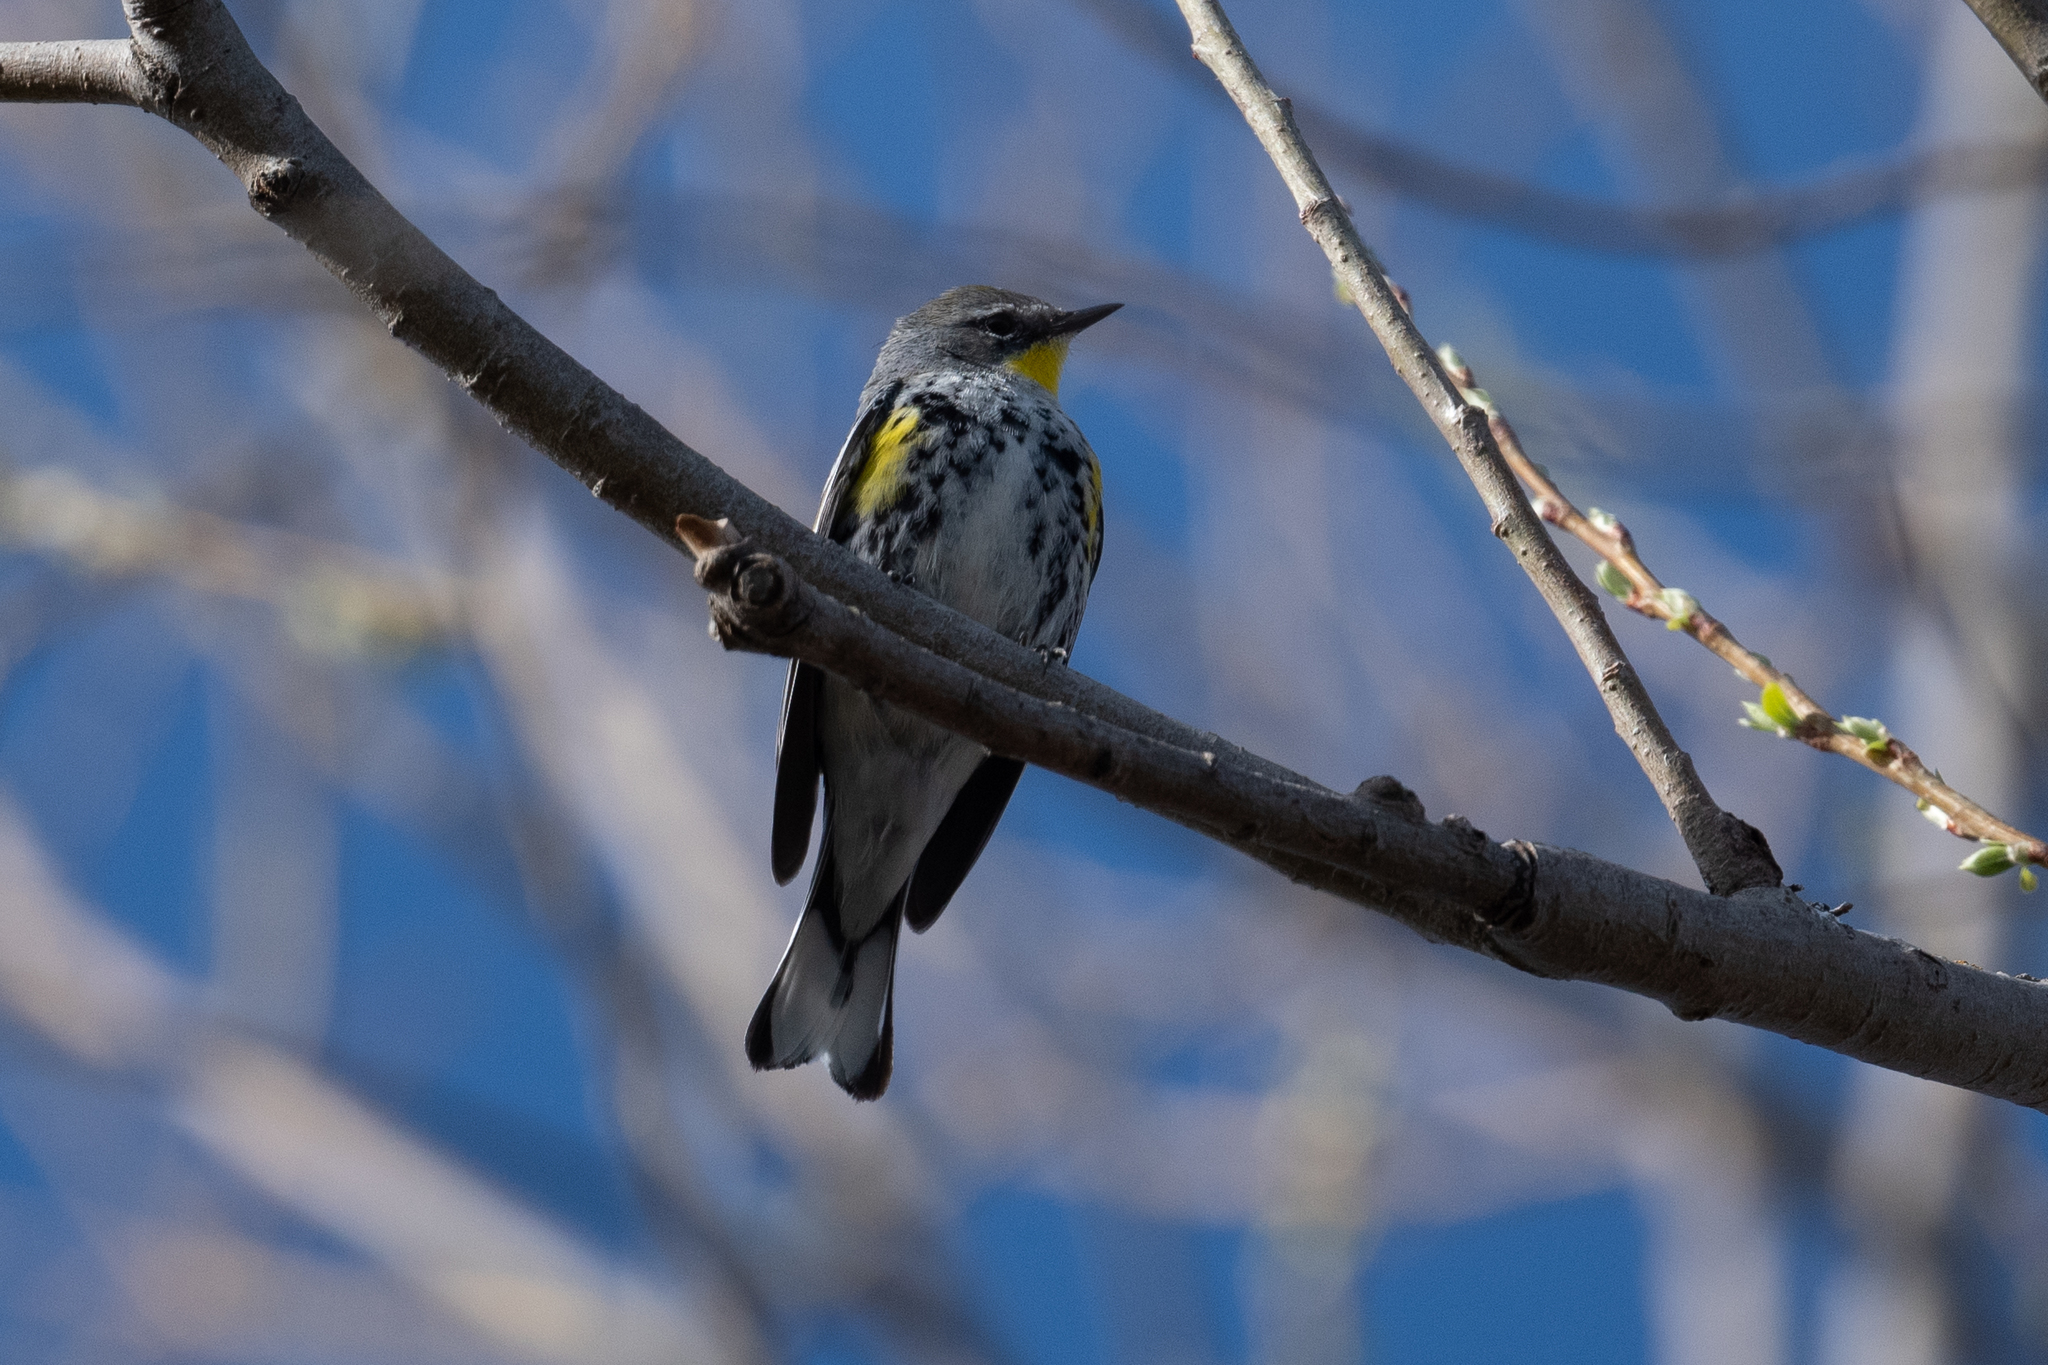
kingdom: Animalia
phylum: Chordata
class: Aves
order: Passeriformes
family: Parulidae
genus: Setophaga
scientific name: Setophaga coronata
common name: Myrtle warbler
